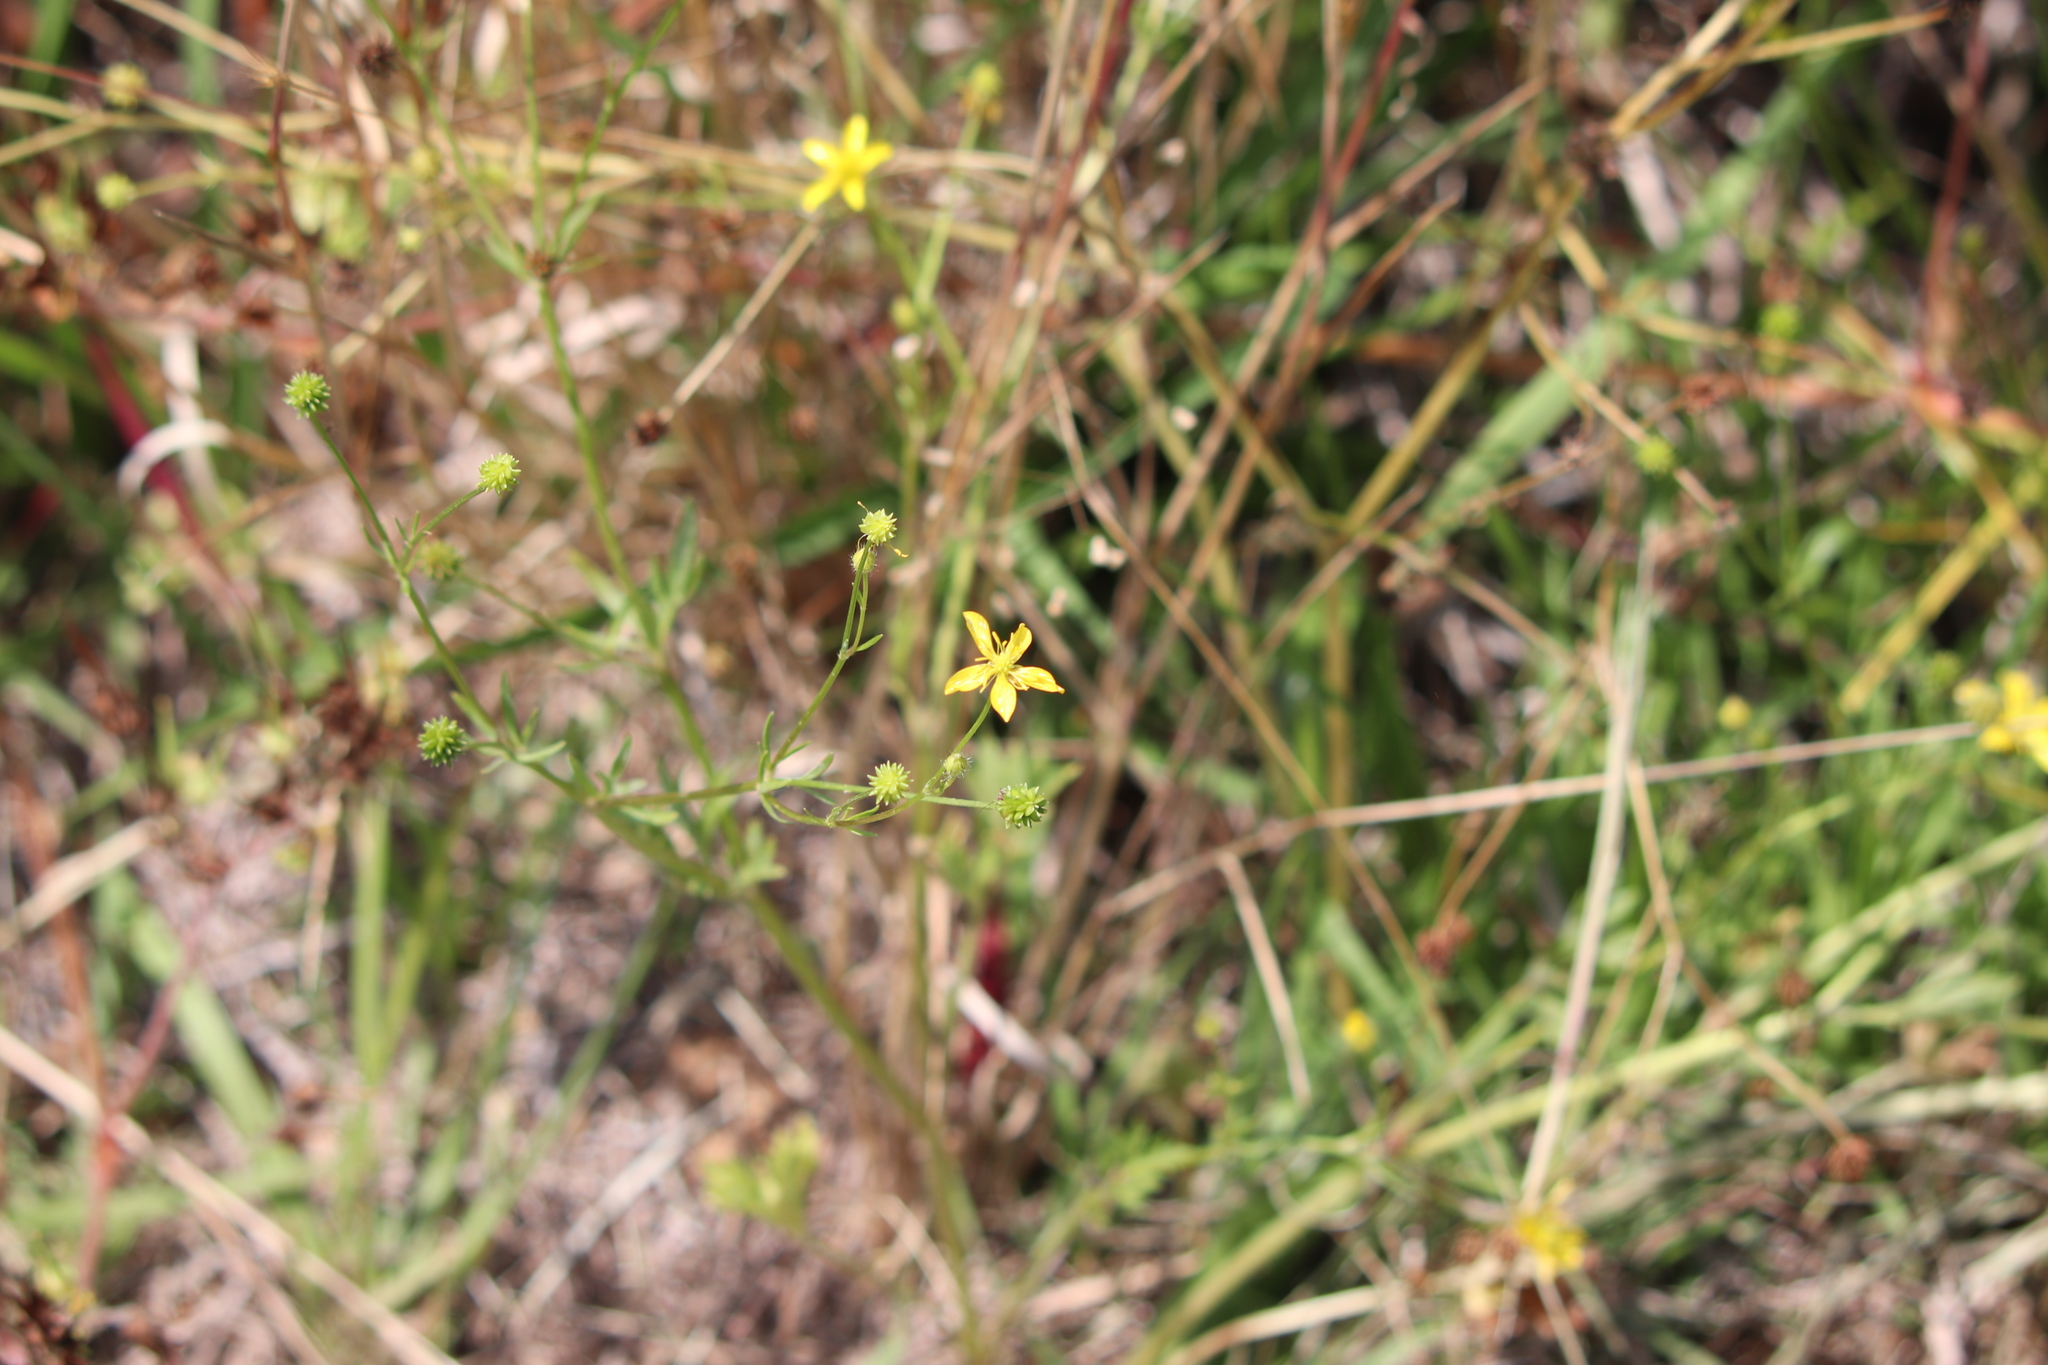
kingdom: Plantae
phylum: Tracheophyta
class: Magnoliopsida
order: Ranunculales
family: Ranunculaceae
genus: Ranunculus
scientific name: Ranunculus trilobus
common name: Threelobe buttercup
